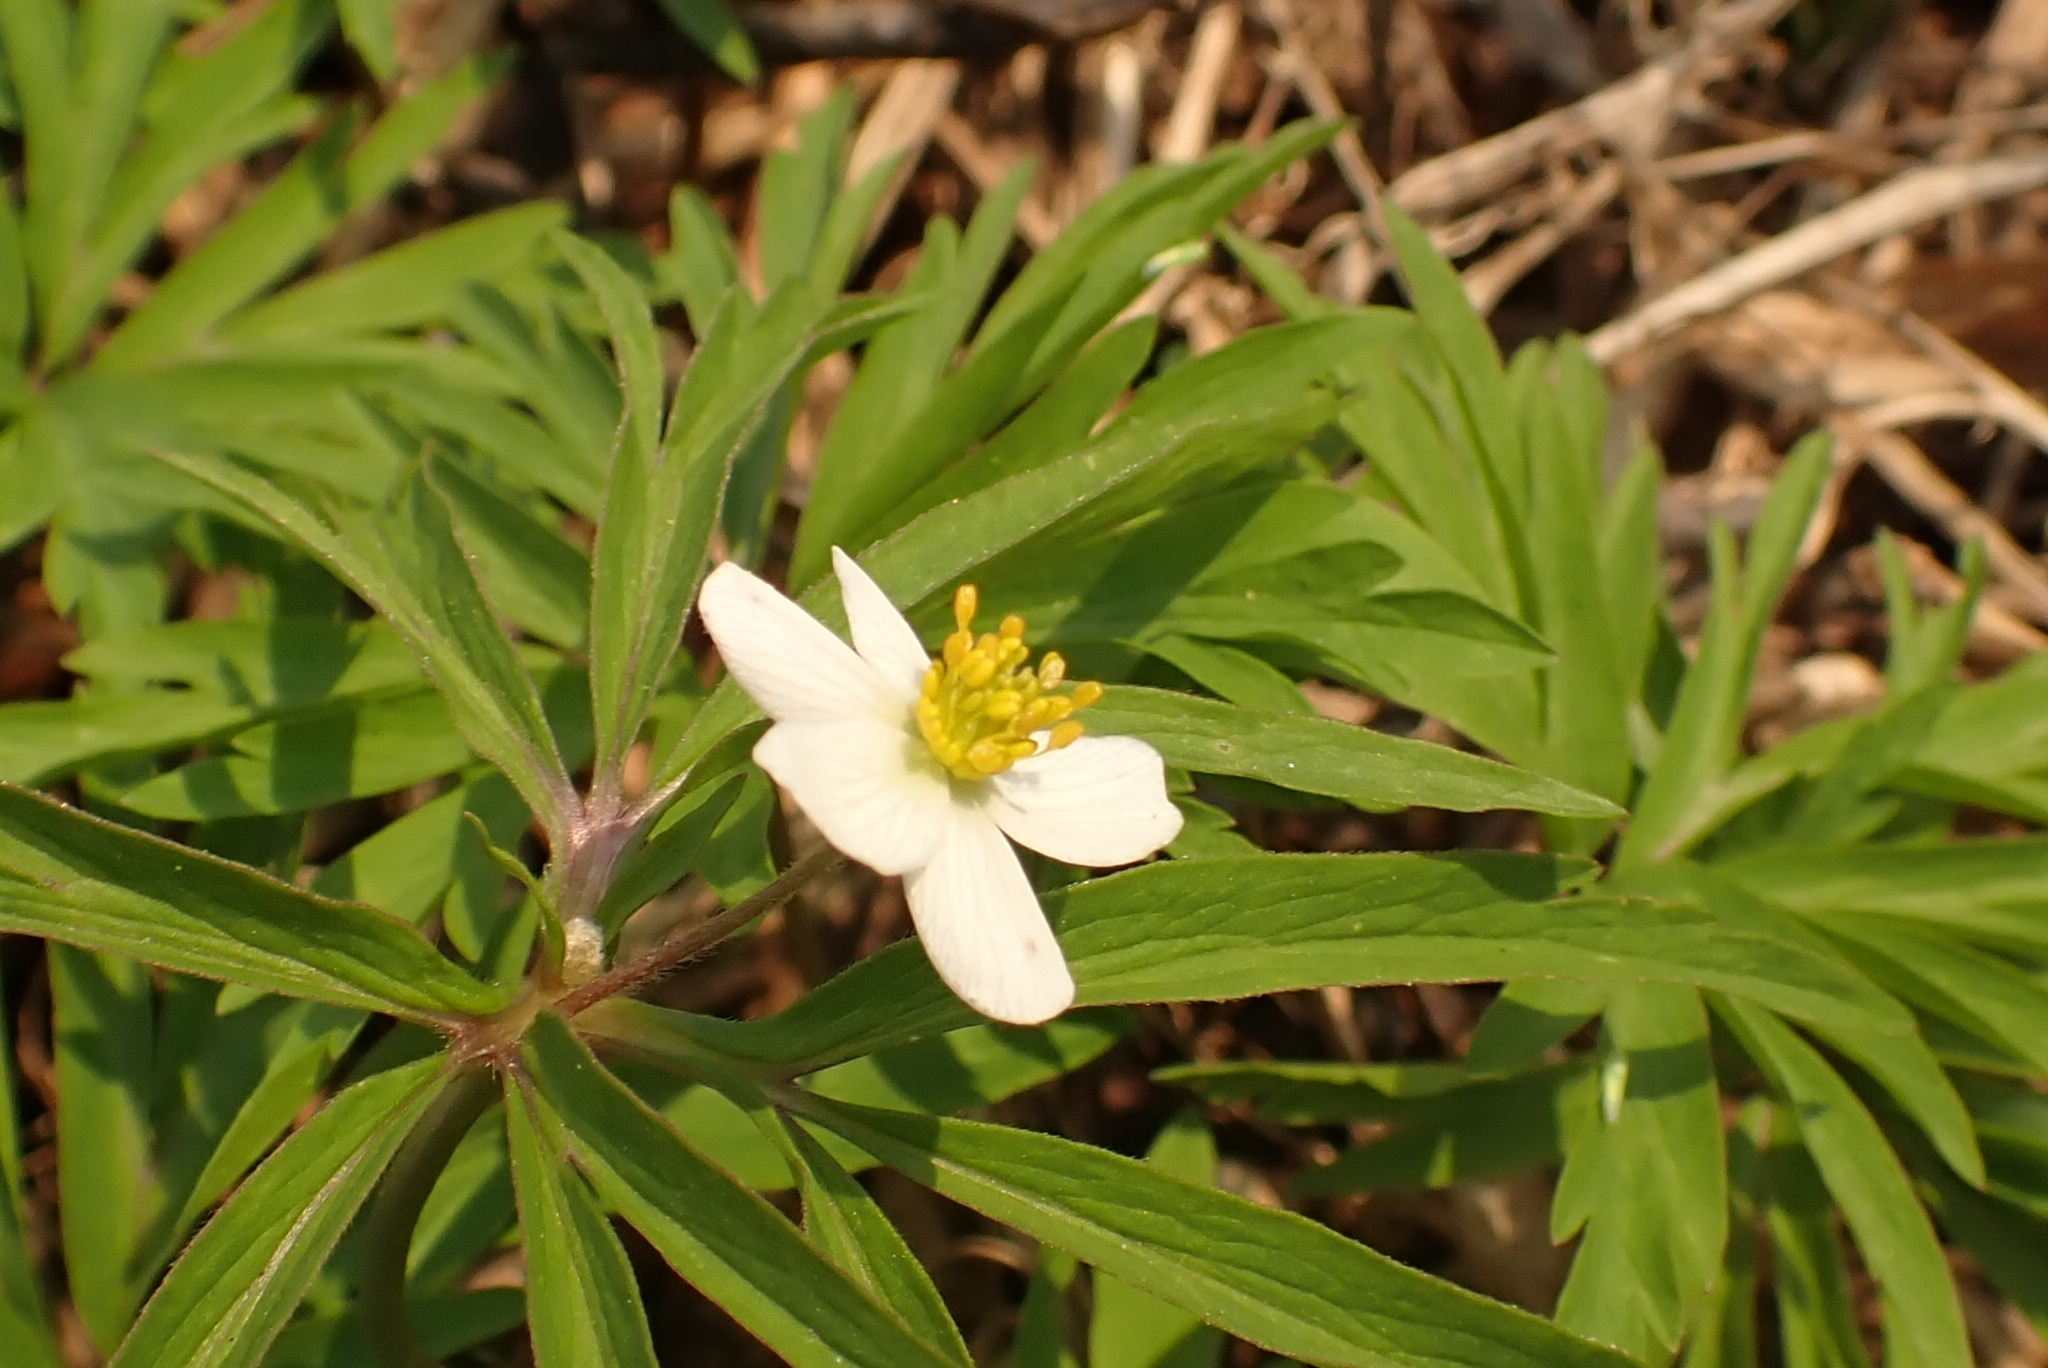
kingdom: Plantae
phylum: Tracheophyta
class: Magnoliopsida
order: Ranunculales
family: Ranunculaceae
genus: Anemone
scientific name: Anemone caerulea
